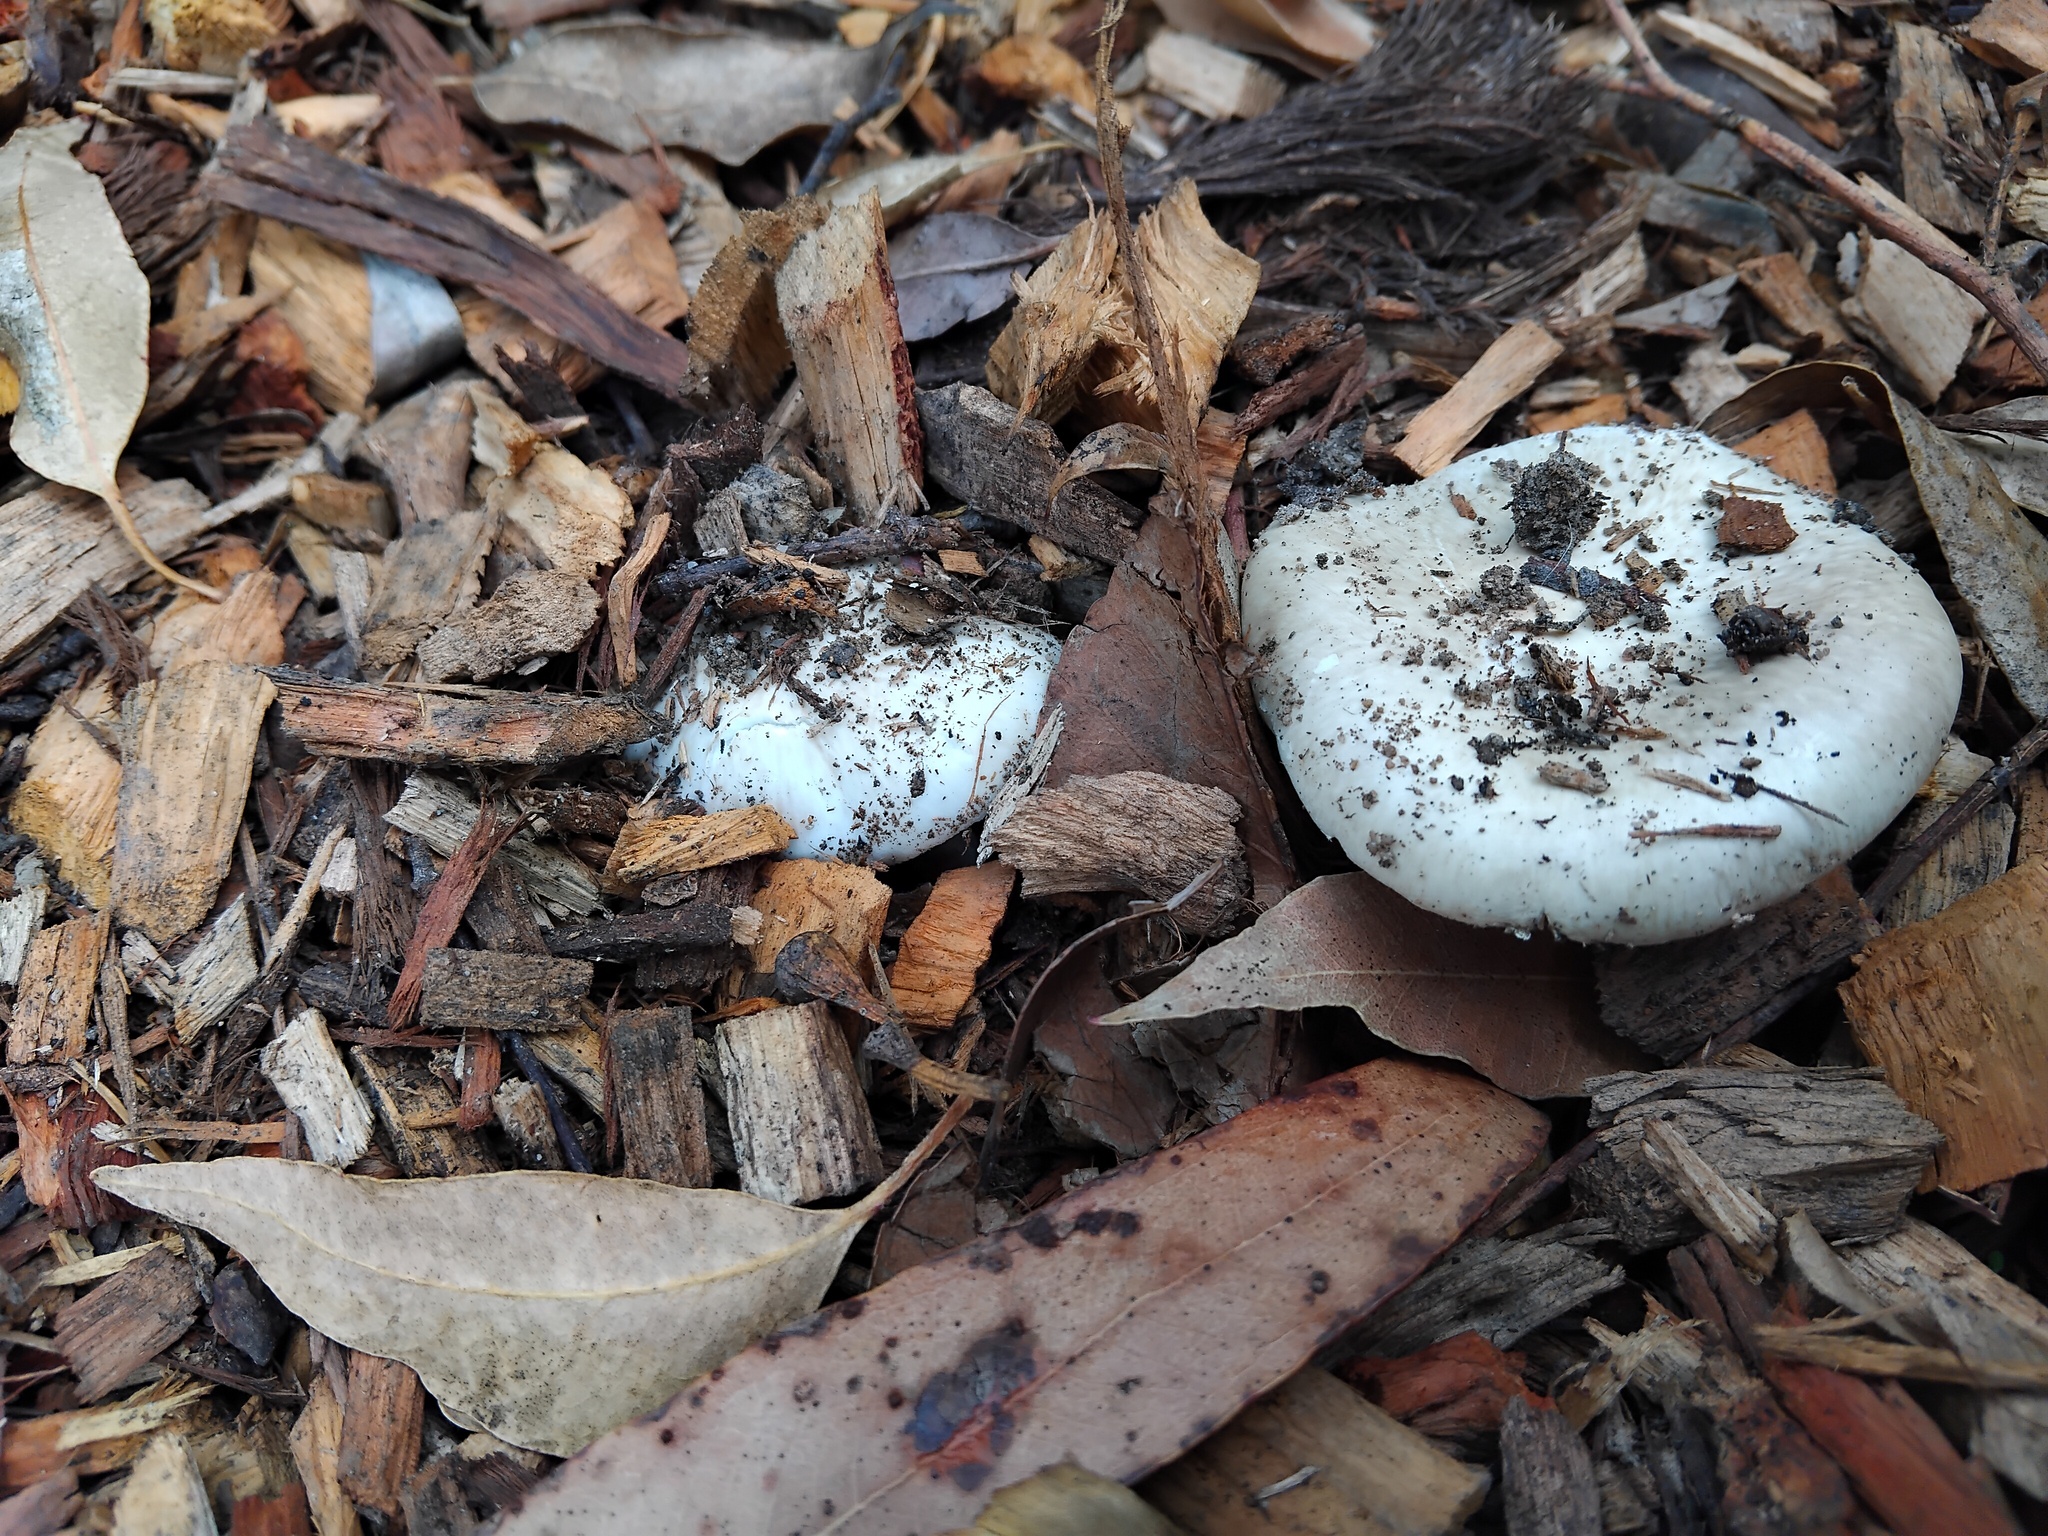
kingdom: Fungi
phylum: Basidiomycota
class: Agaricomycetes
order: Agaricales
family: Amanitaceae
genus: Amanita
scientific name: Amanita marmorata
